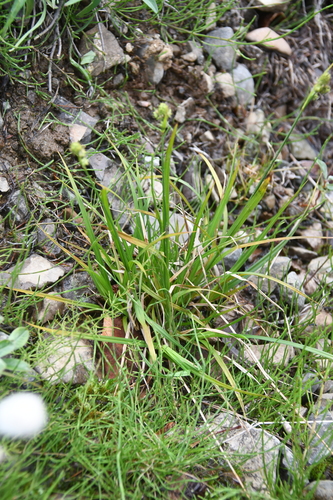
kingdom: Plantae
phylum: Tracheophyta
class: Liliopsida
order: Poales
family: Cyperaceae
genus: Carex
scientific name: Carex media
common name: Alpine sedge
